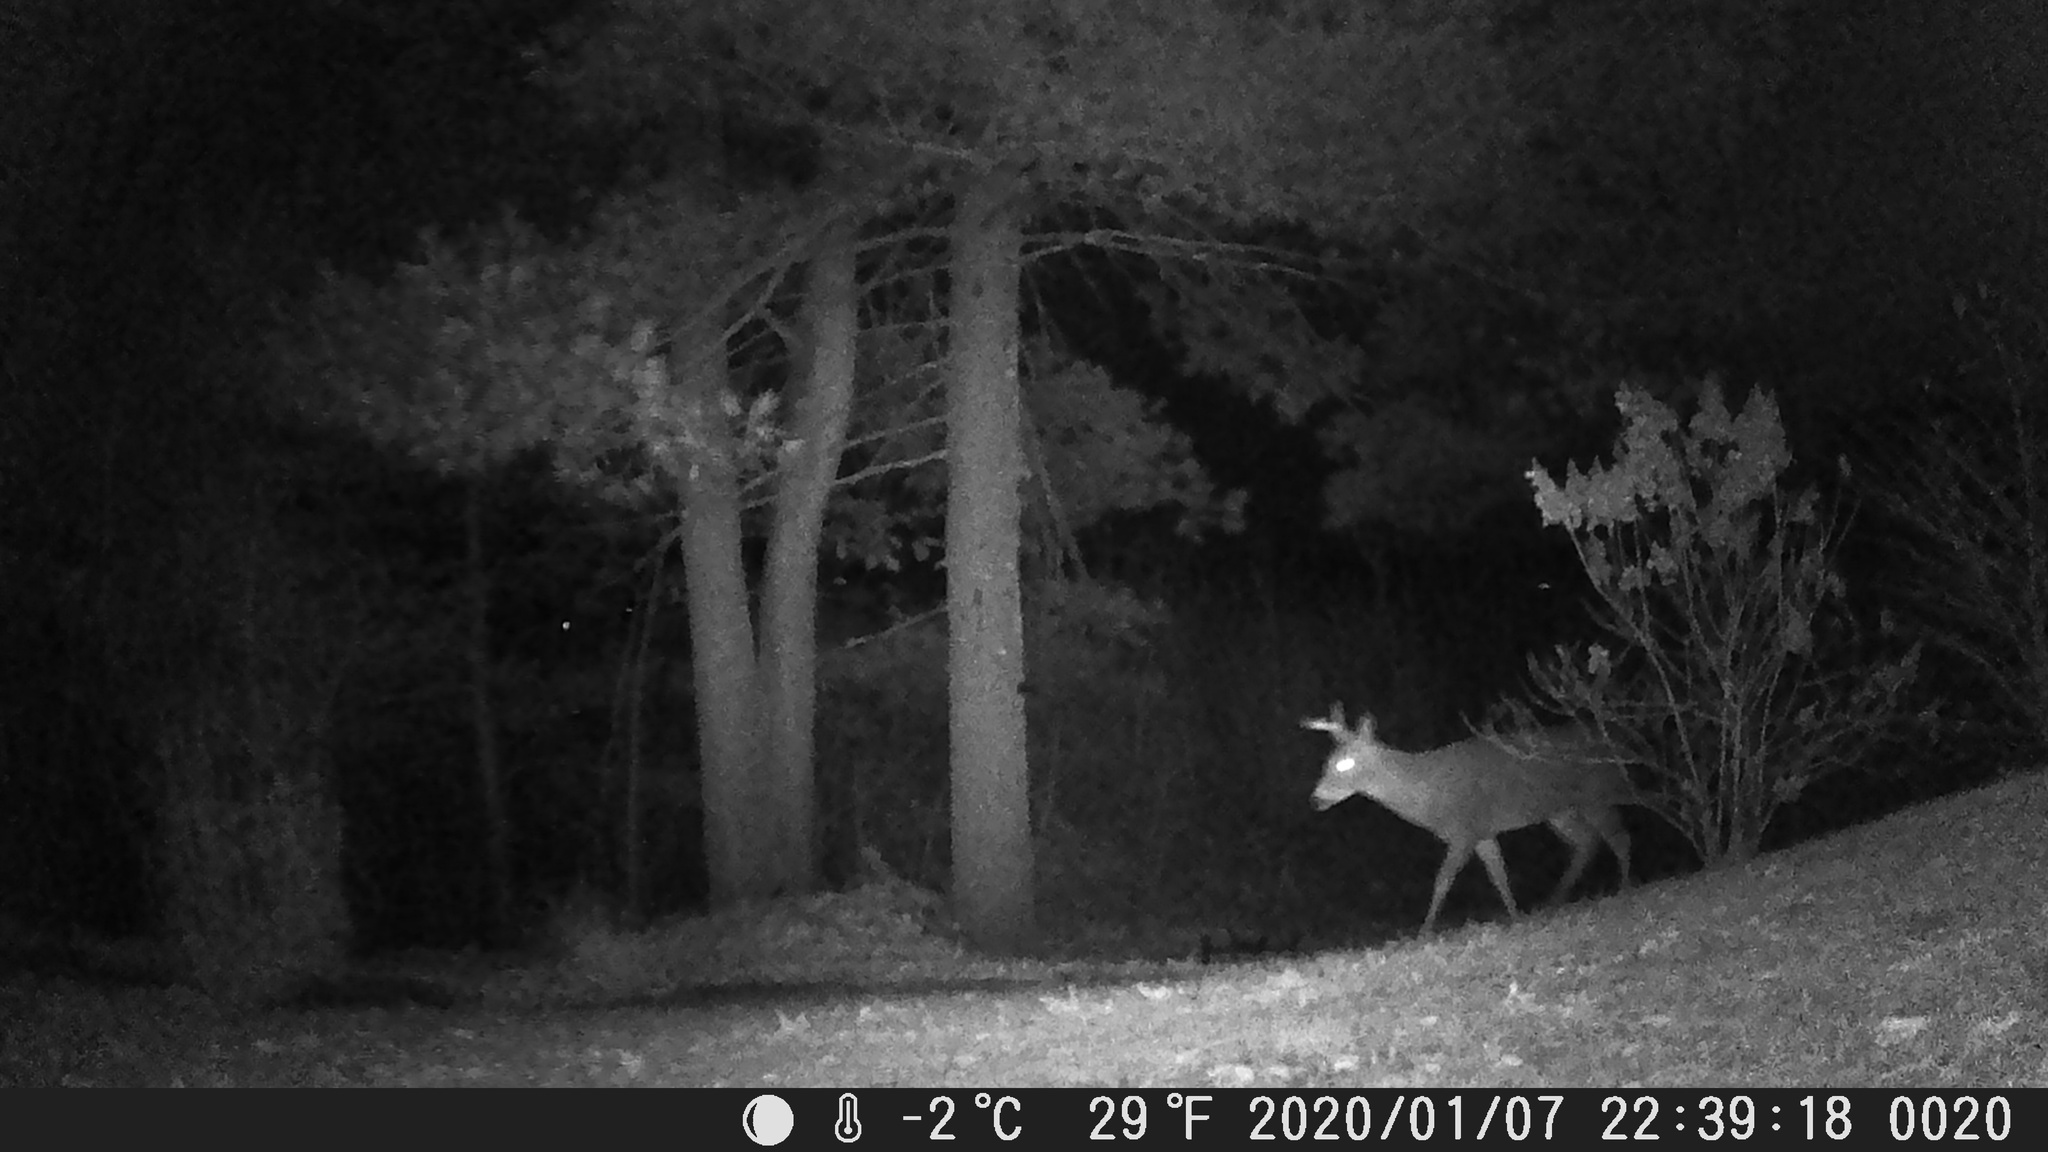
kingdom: Animalia
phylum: Chordata
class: Mammalia
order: Artiodactyla
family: Cervidae
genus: Odocoileus
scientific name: Odocoileus virginianus
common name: White-tailed deer
